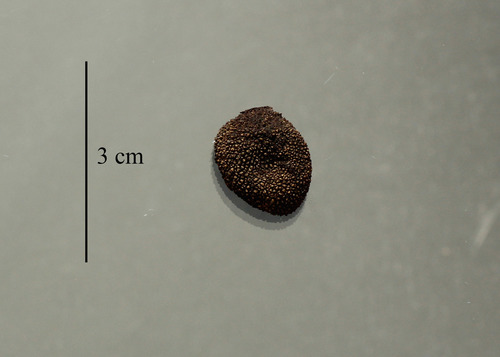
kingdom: Fungi
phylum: Ascomycota
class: Eurotiomycetes
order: Eurotiales
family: Elaphomycetaceae
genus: Elaphomyces
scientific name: Elaphomyces asperulus
